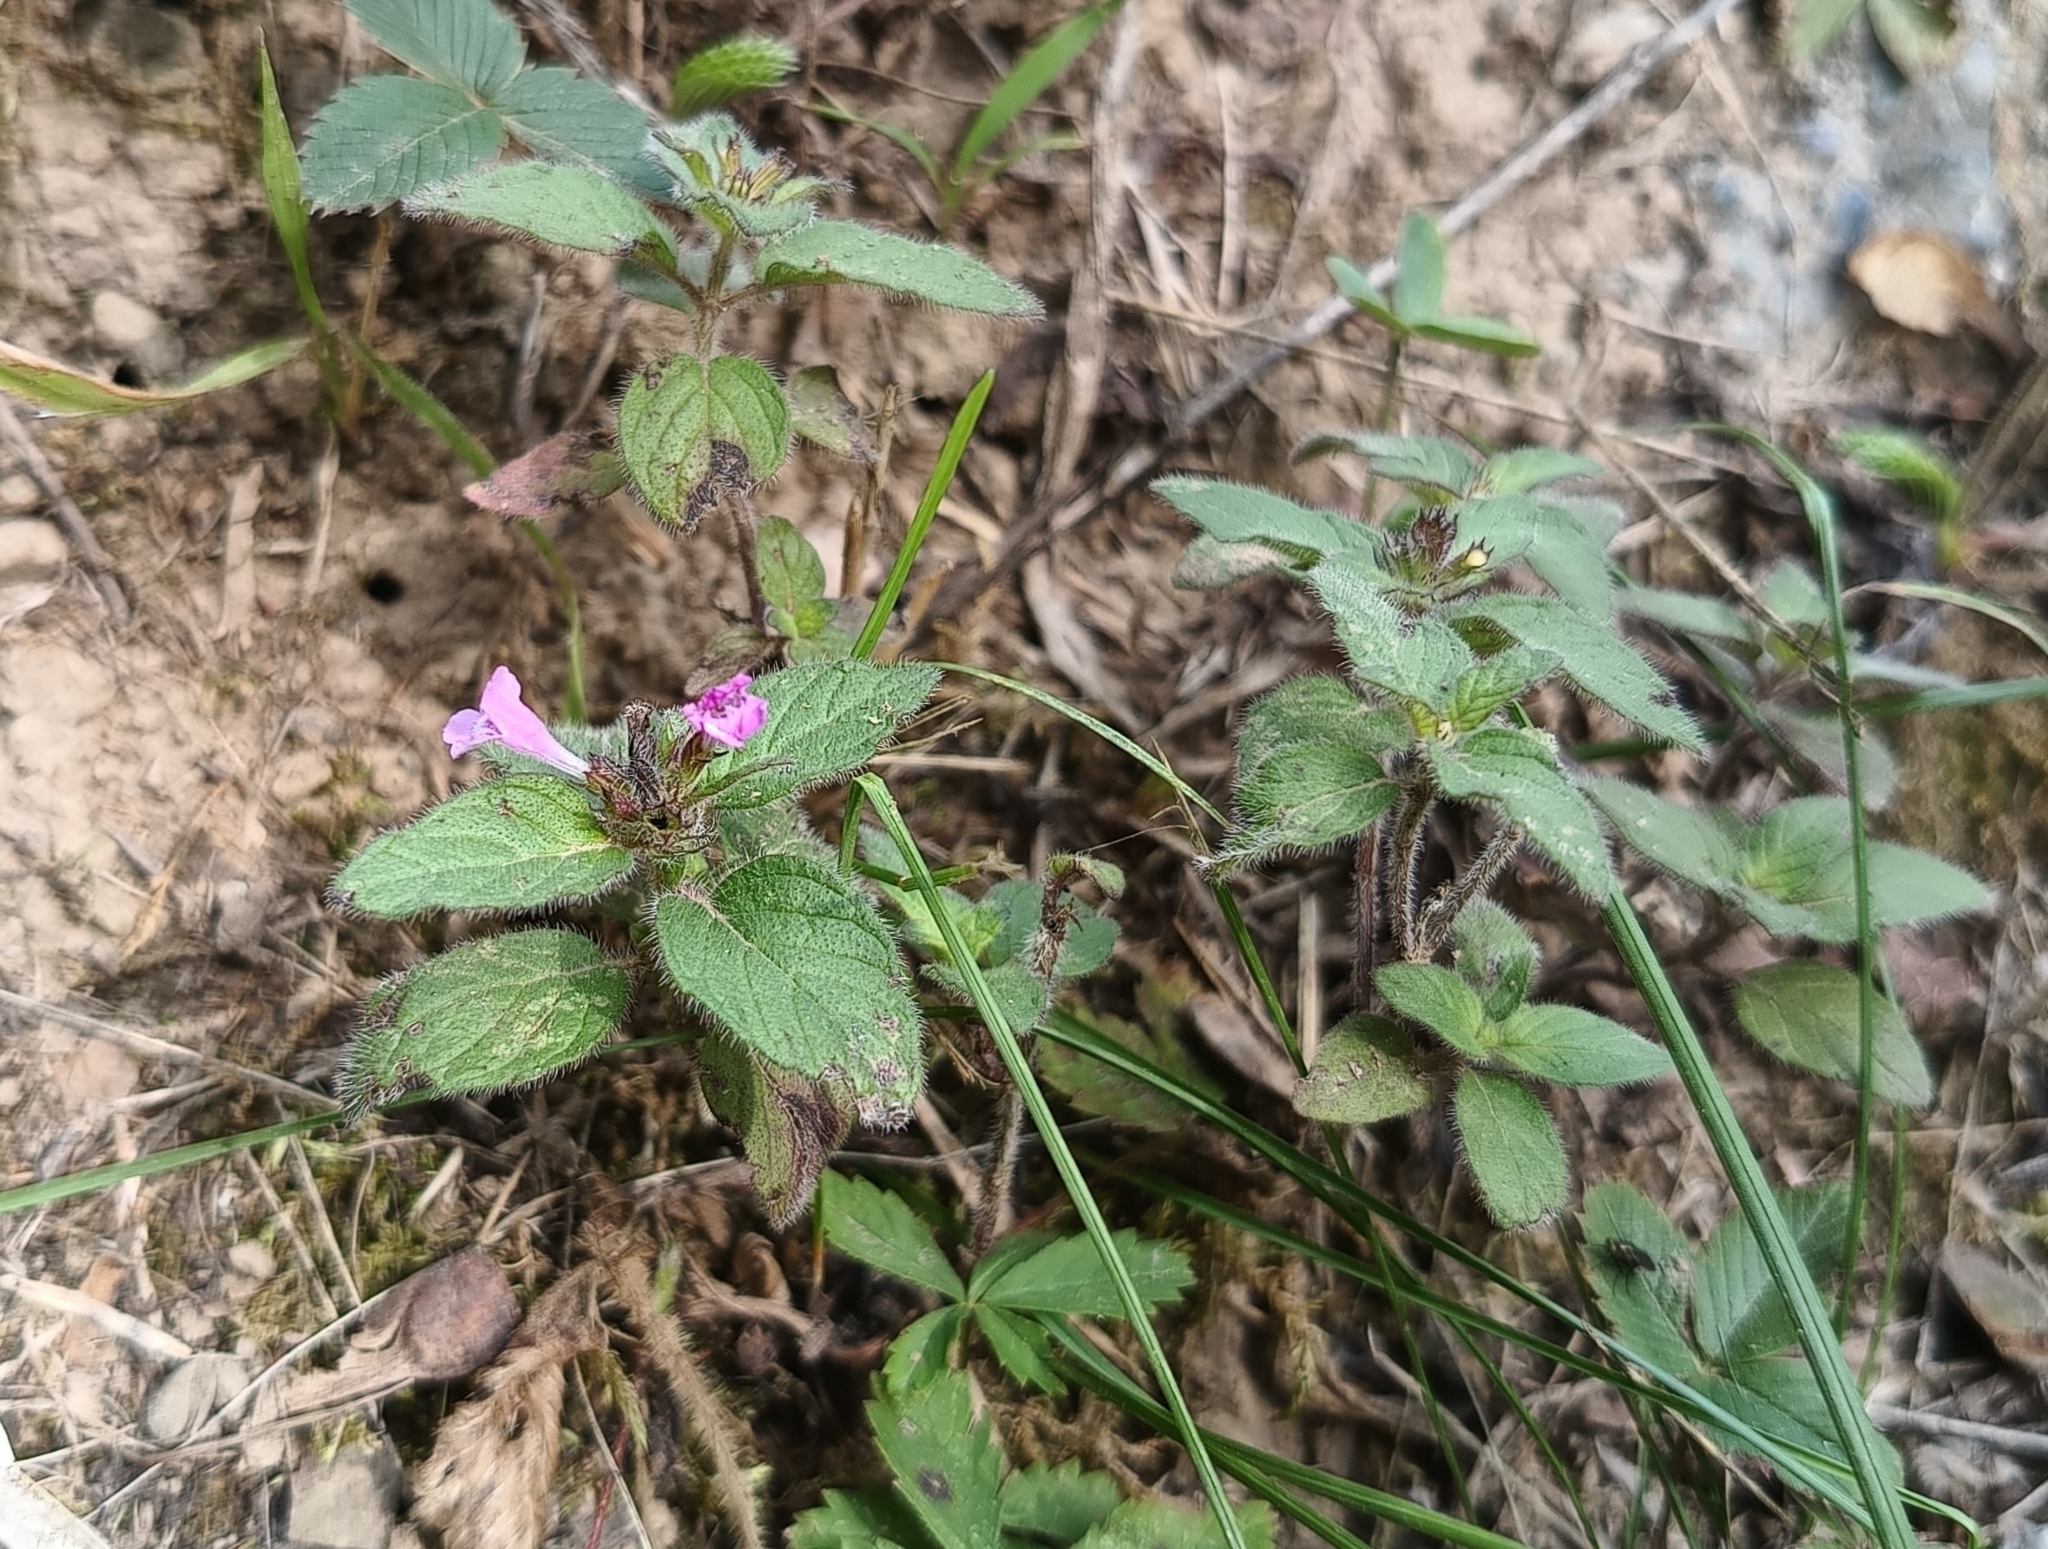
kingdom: Plantae
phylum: Tracheophyta
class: Magnoliopsida
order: Lamiales
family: Lamiaceae
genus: Clinopodium
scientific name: Clinopodium vulgare
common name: Wild basil
